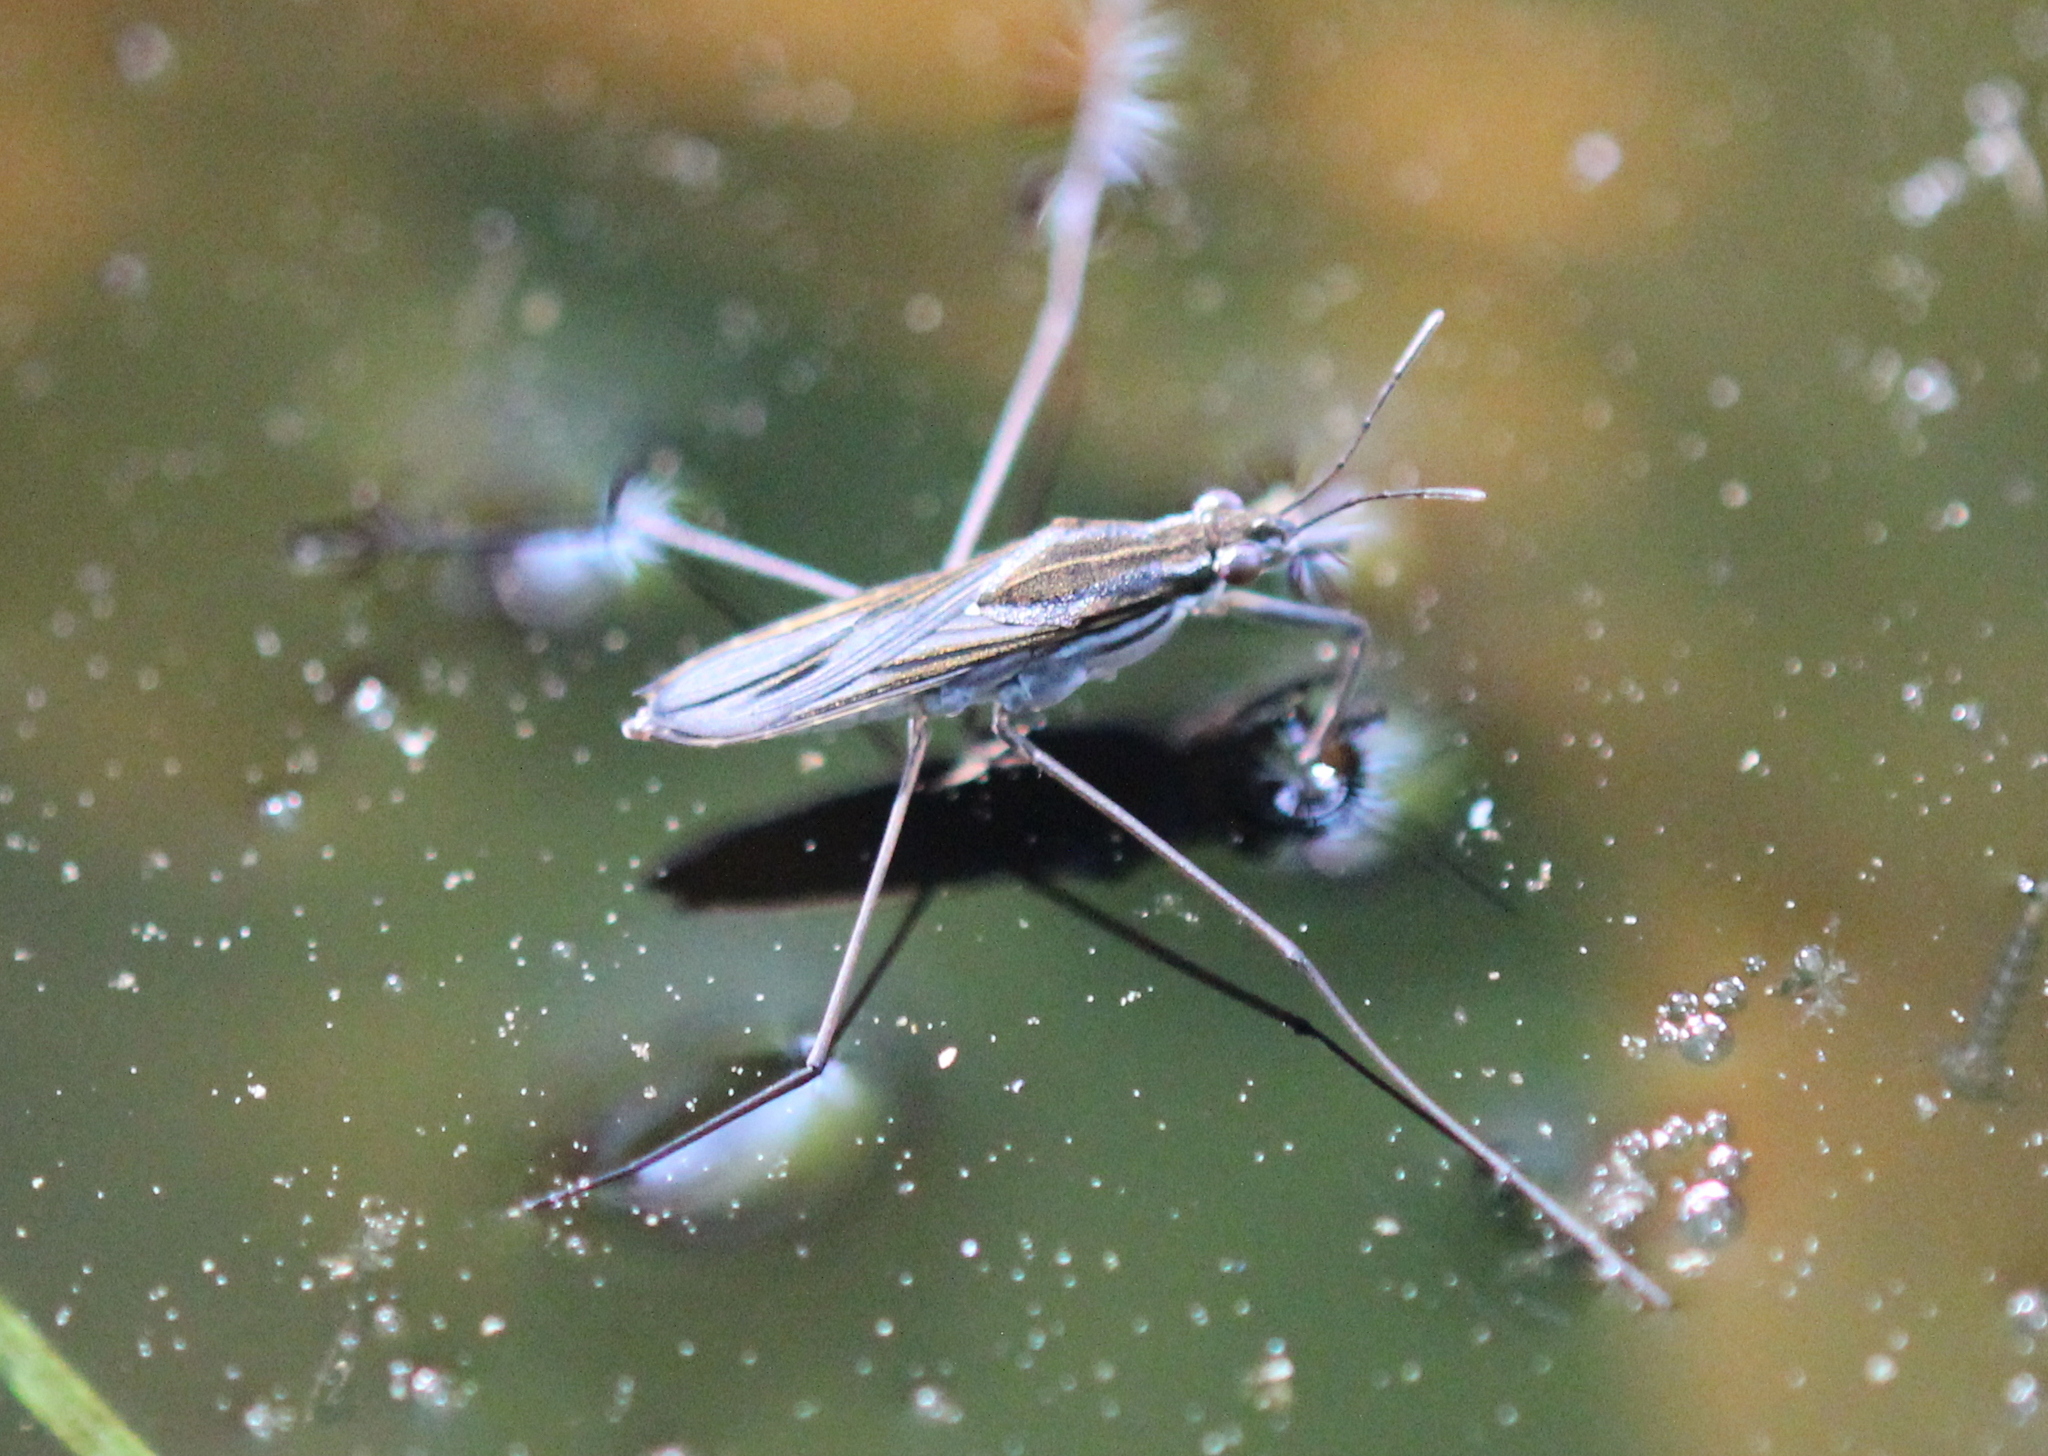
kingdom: Animalia
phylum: Arthropoda
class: Insecta
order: Hemiptera
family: Gerridae
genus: Gerris
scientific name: Gerris
